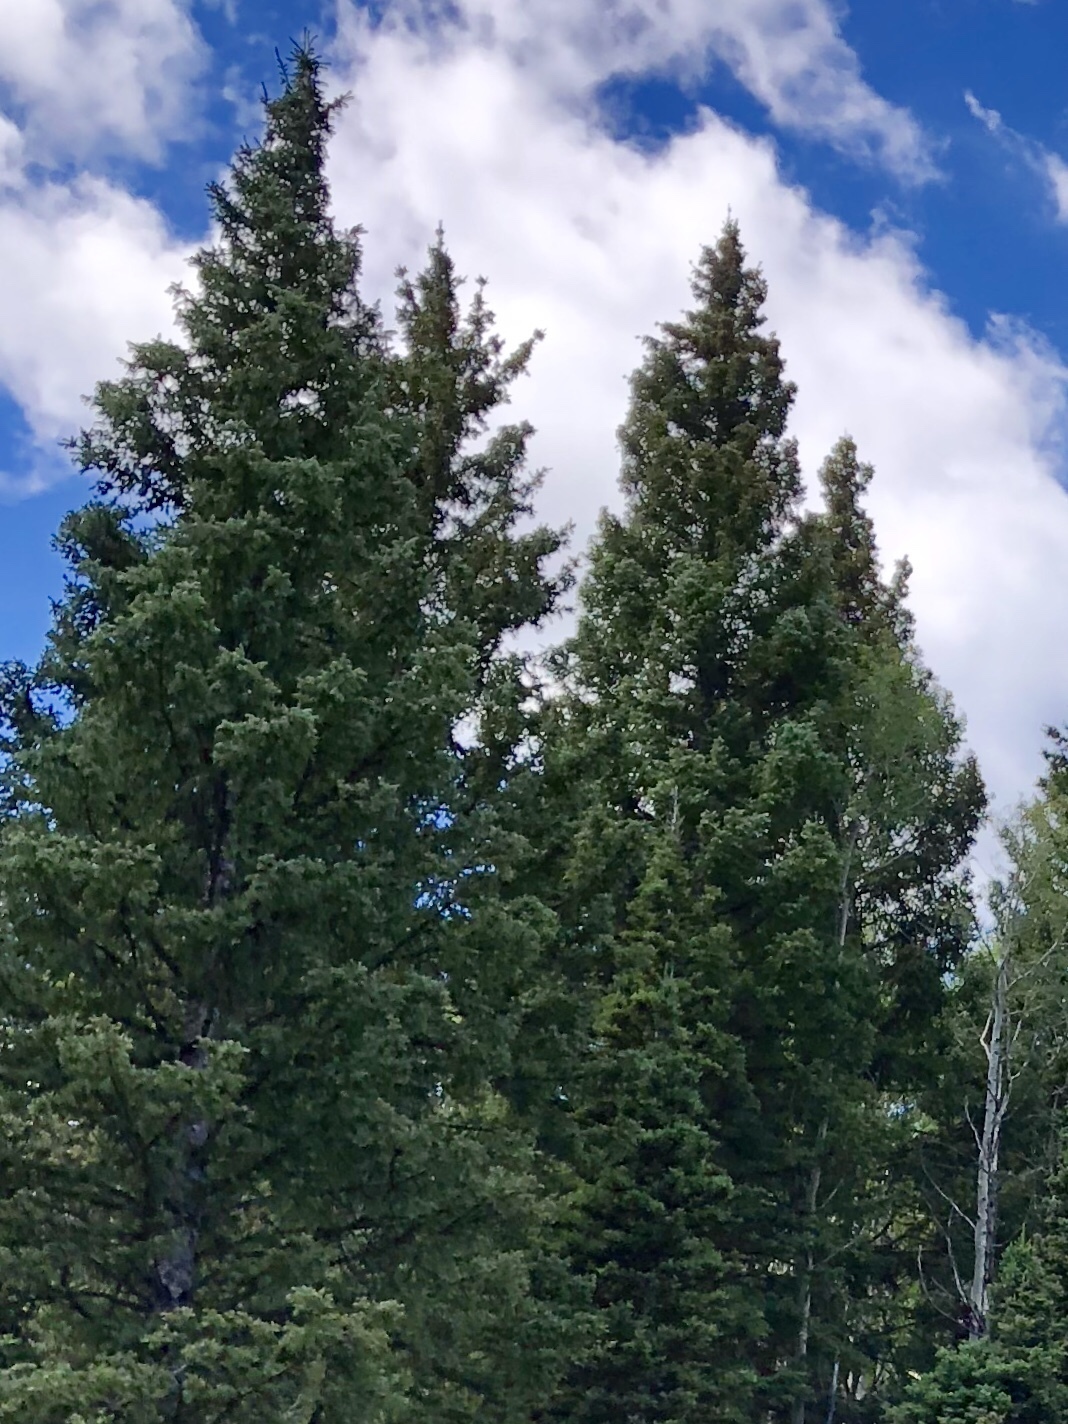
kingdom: Plantae
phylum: Tracheophyta
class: Pinopsida
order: Pinales
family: Pinaceae
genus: Picea
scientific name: Picea pungens
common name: Colorado spruce
